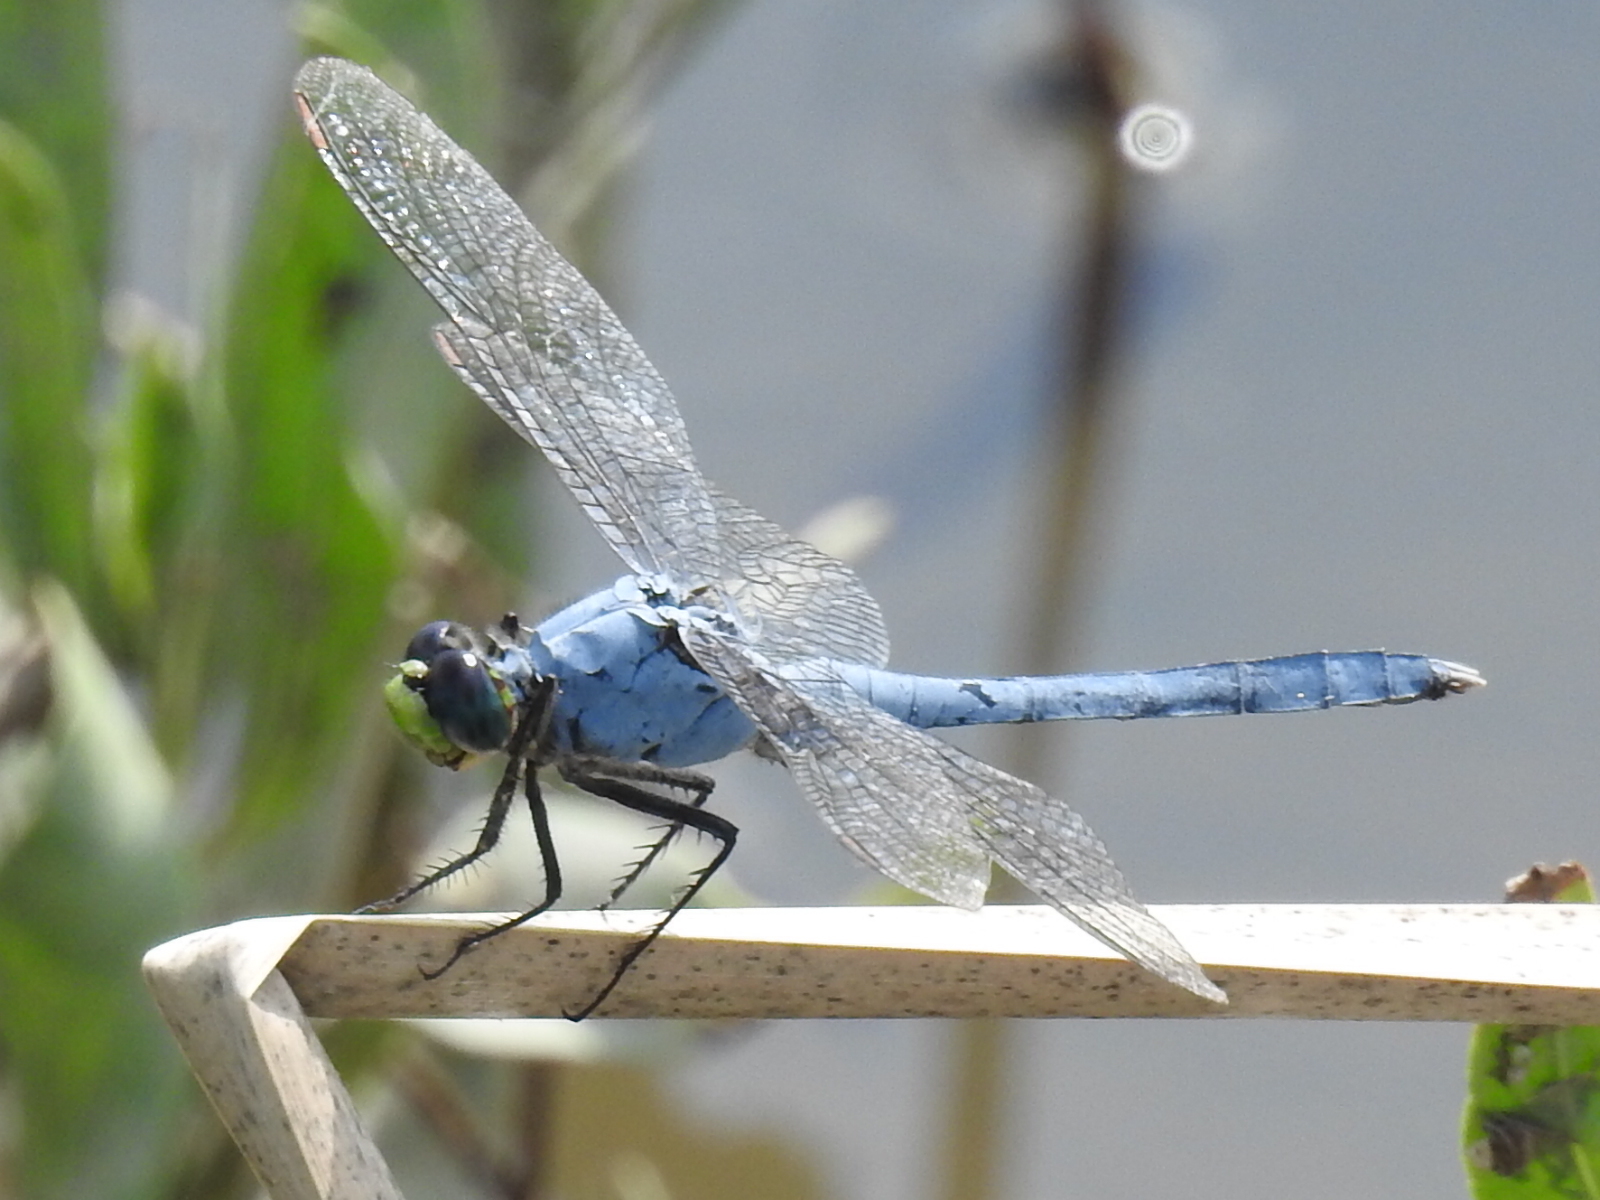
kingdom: Animalia
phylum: Arthropoda
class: Insecta
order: Odonata
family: Libellulidae
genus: Erythemis
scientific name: Erythemis simplicicollis
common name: Eastern pondhawk
